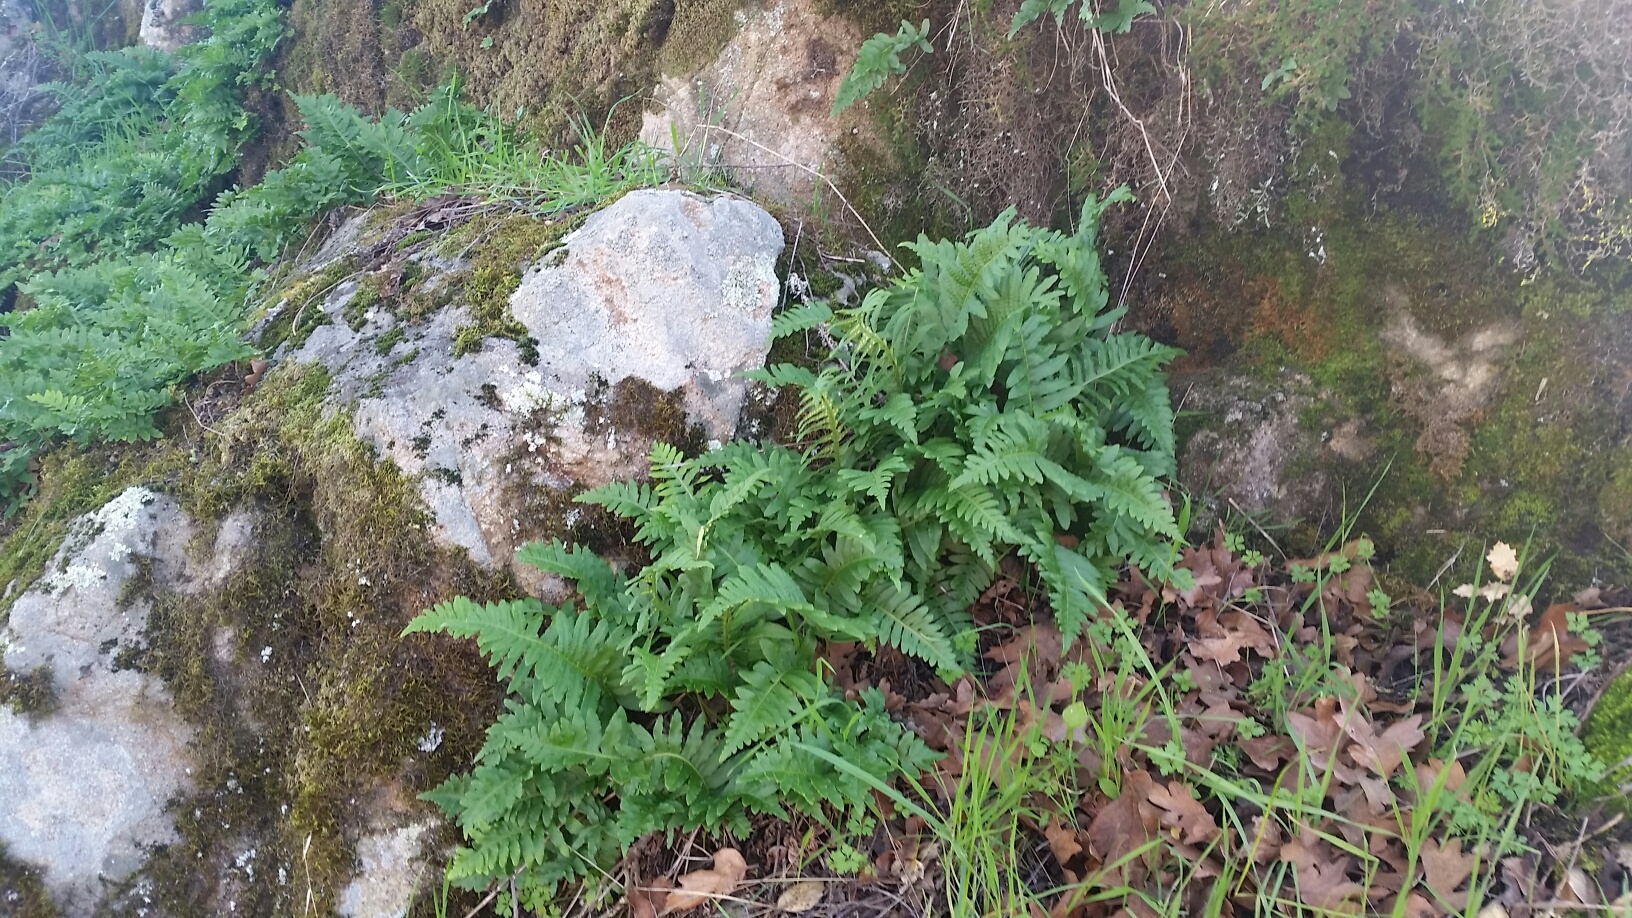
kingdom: Plantae
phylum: Tracheophyta
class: Polypodiopsida
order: Polypodiales
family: Polypodiaceae
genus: Polypodium
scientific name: Polypodium californicum
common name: California polypody
